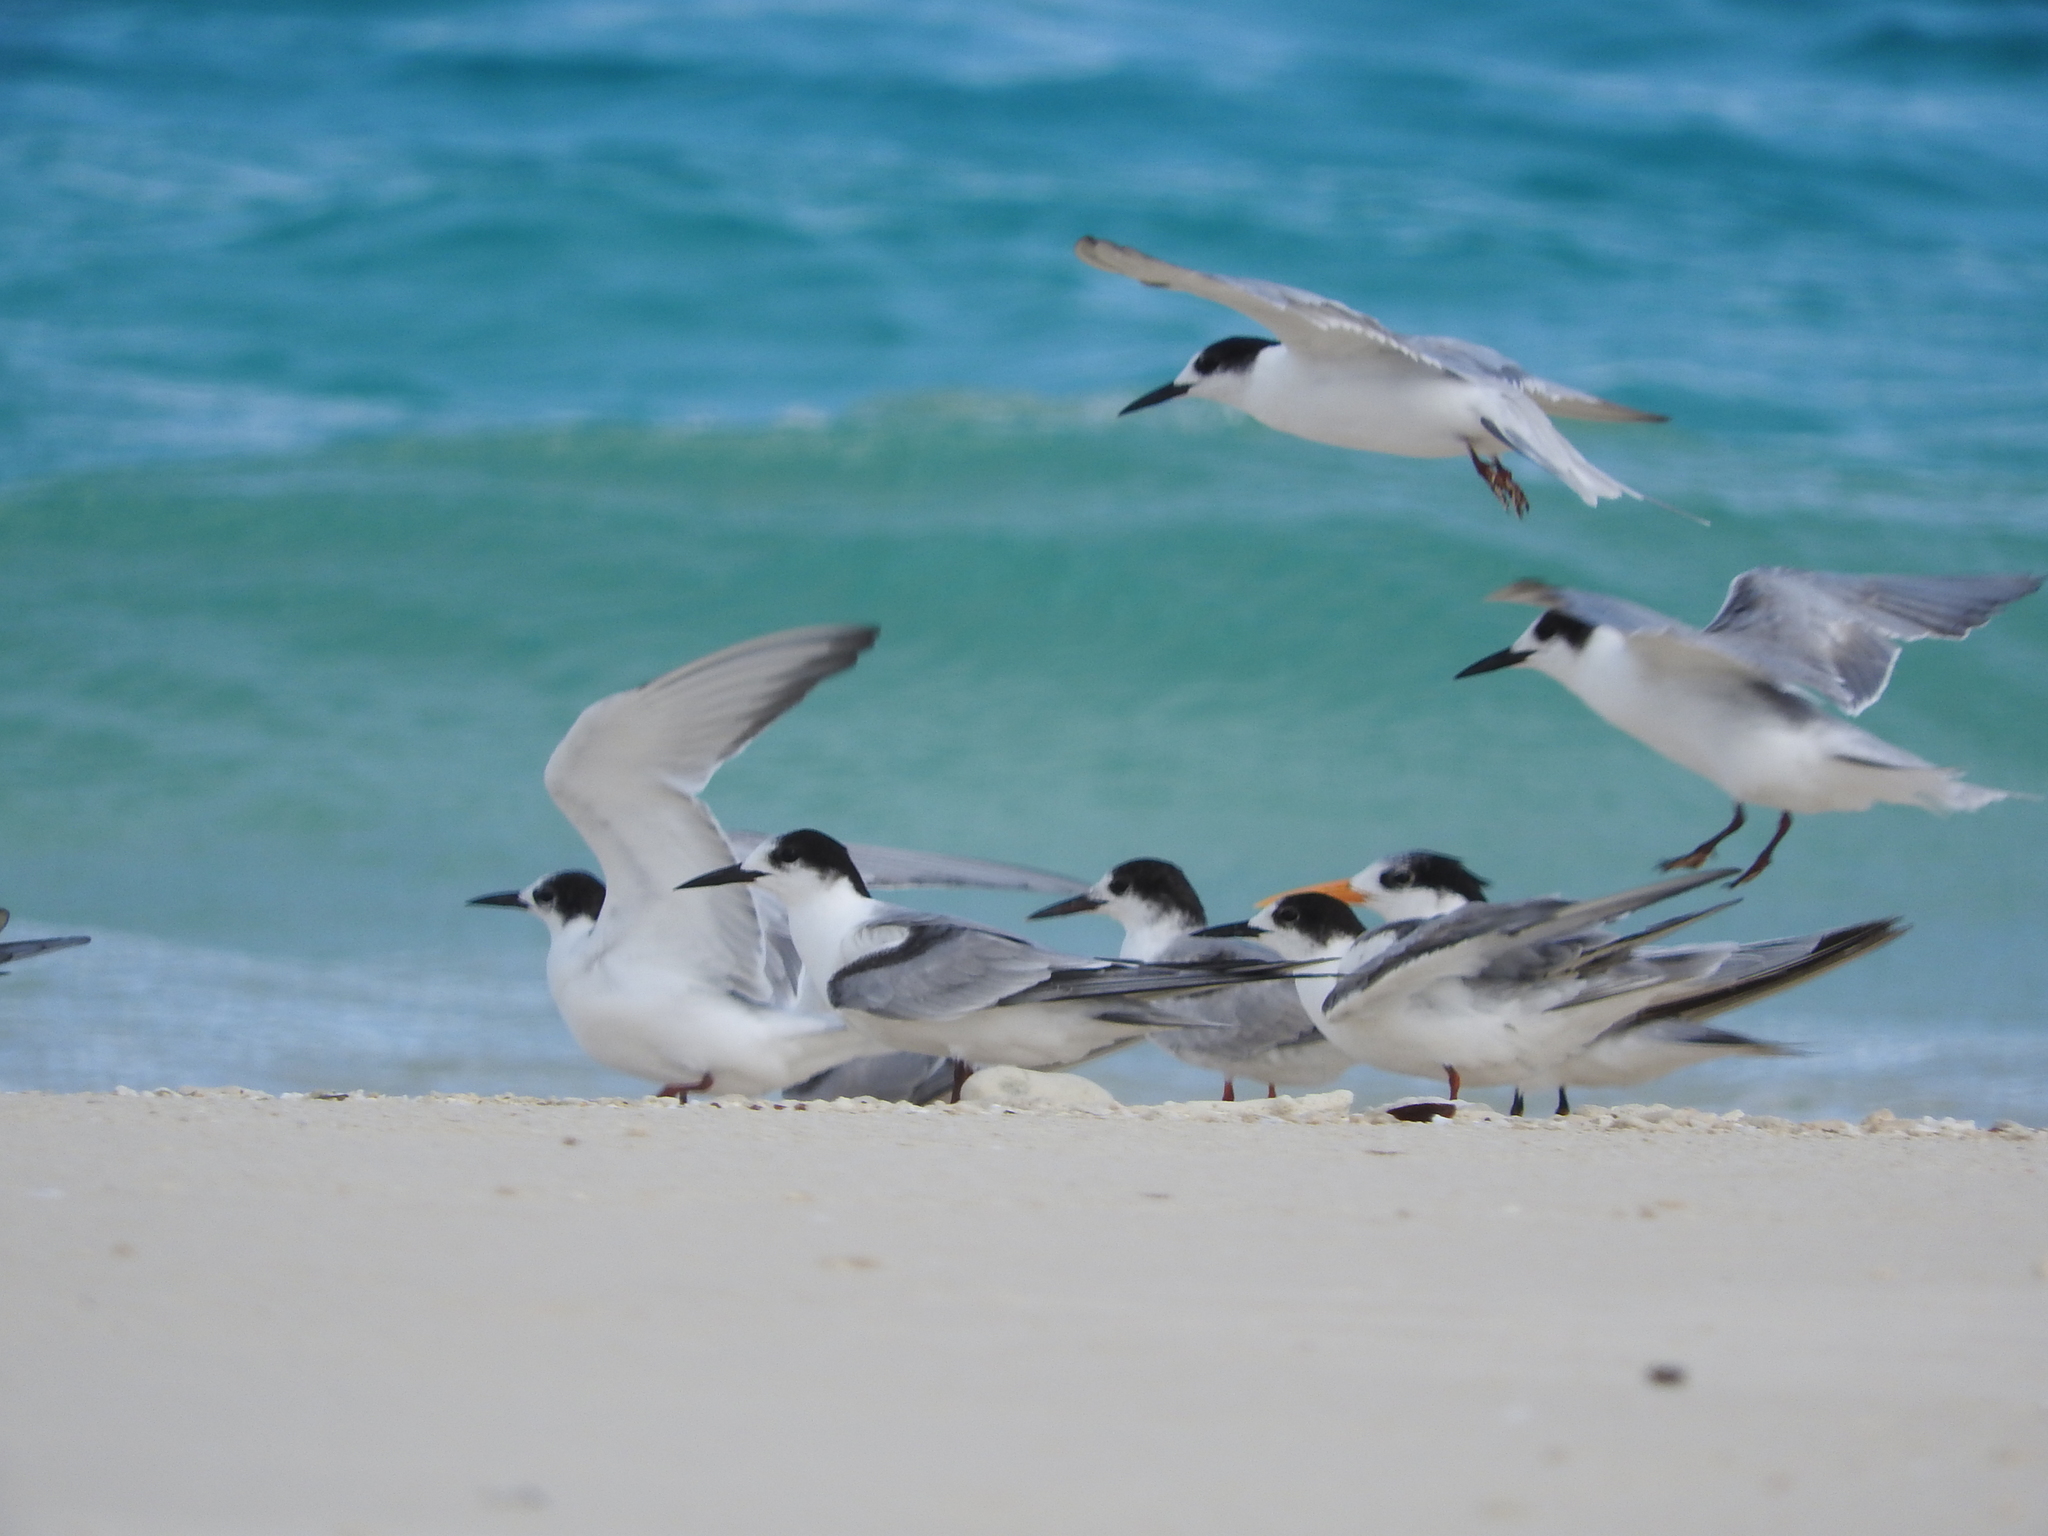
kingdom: Animalia
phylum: Chordata
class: Aves
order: Charadriiformes
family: Laridae
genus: Thalasseus
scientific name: Thalasseus bengalensis
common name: Lesser crested tern
